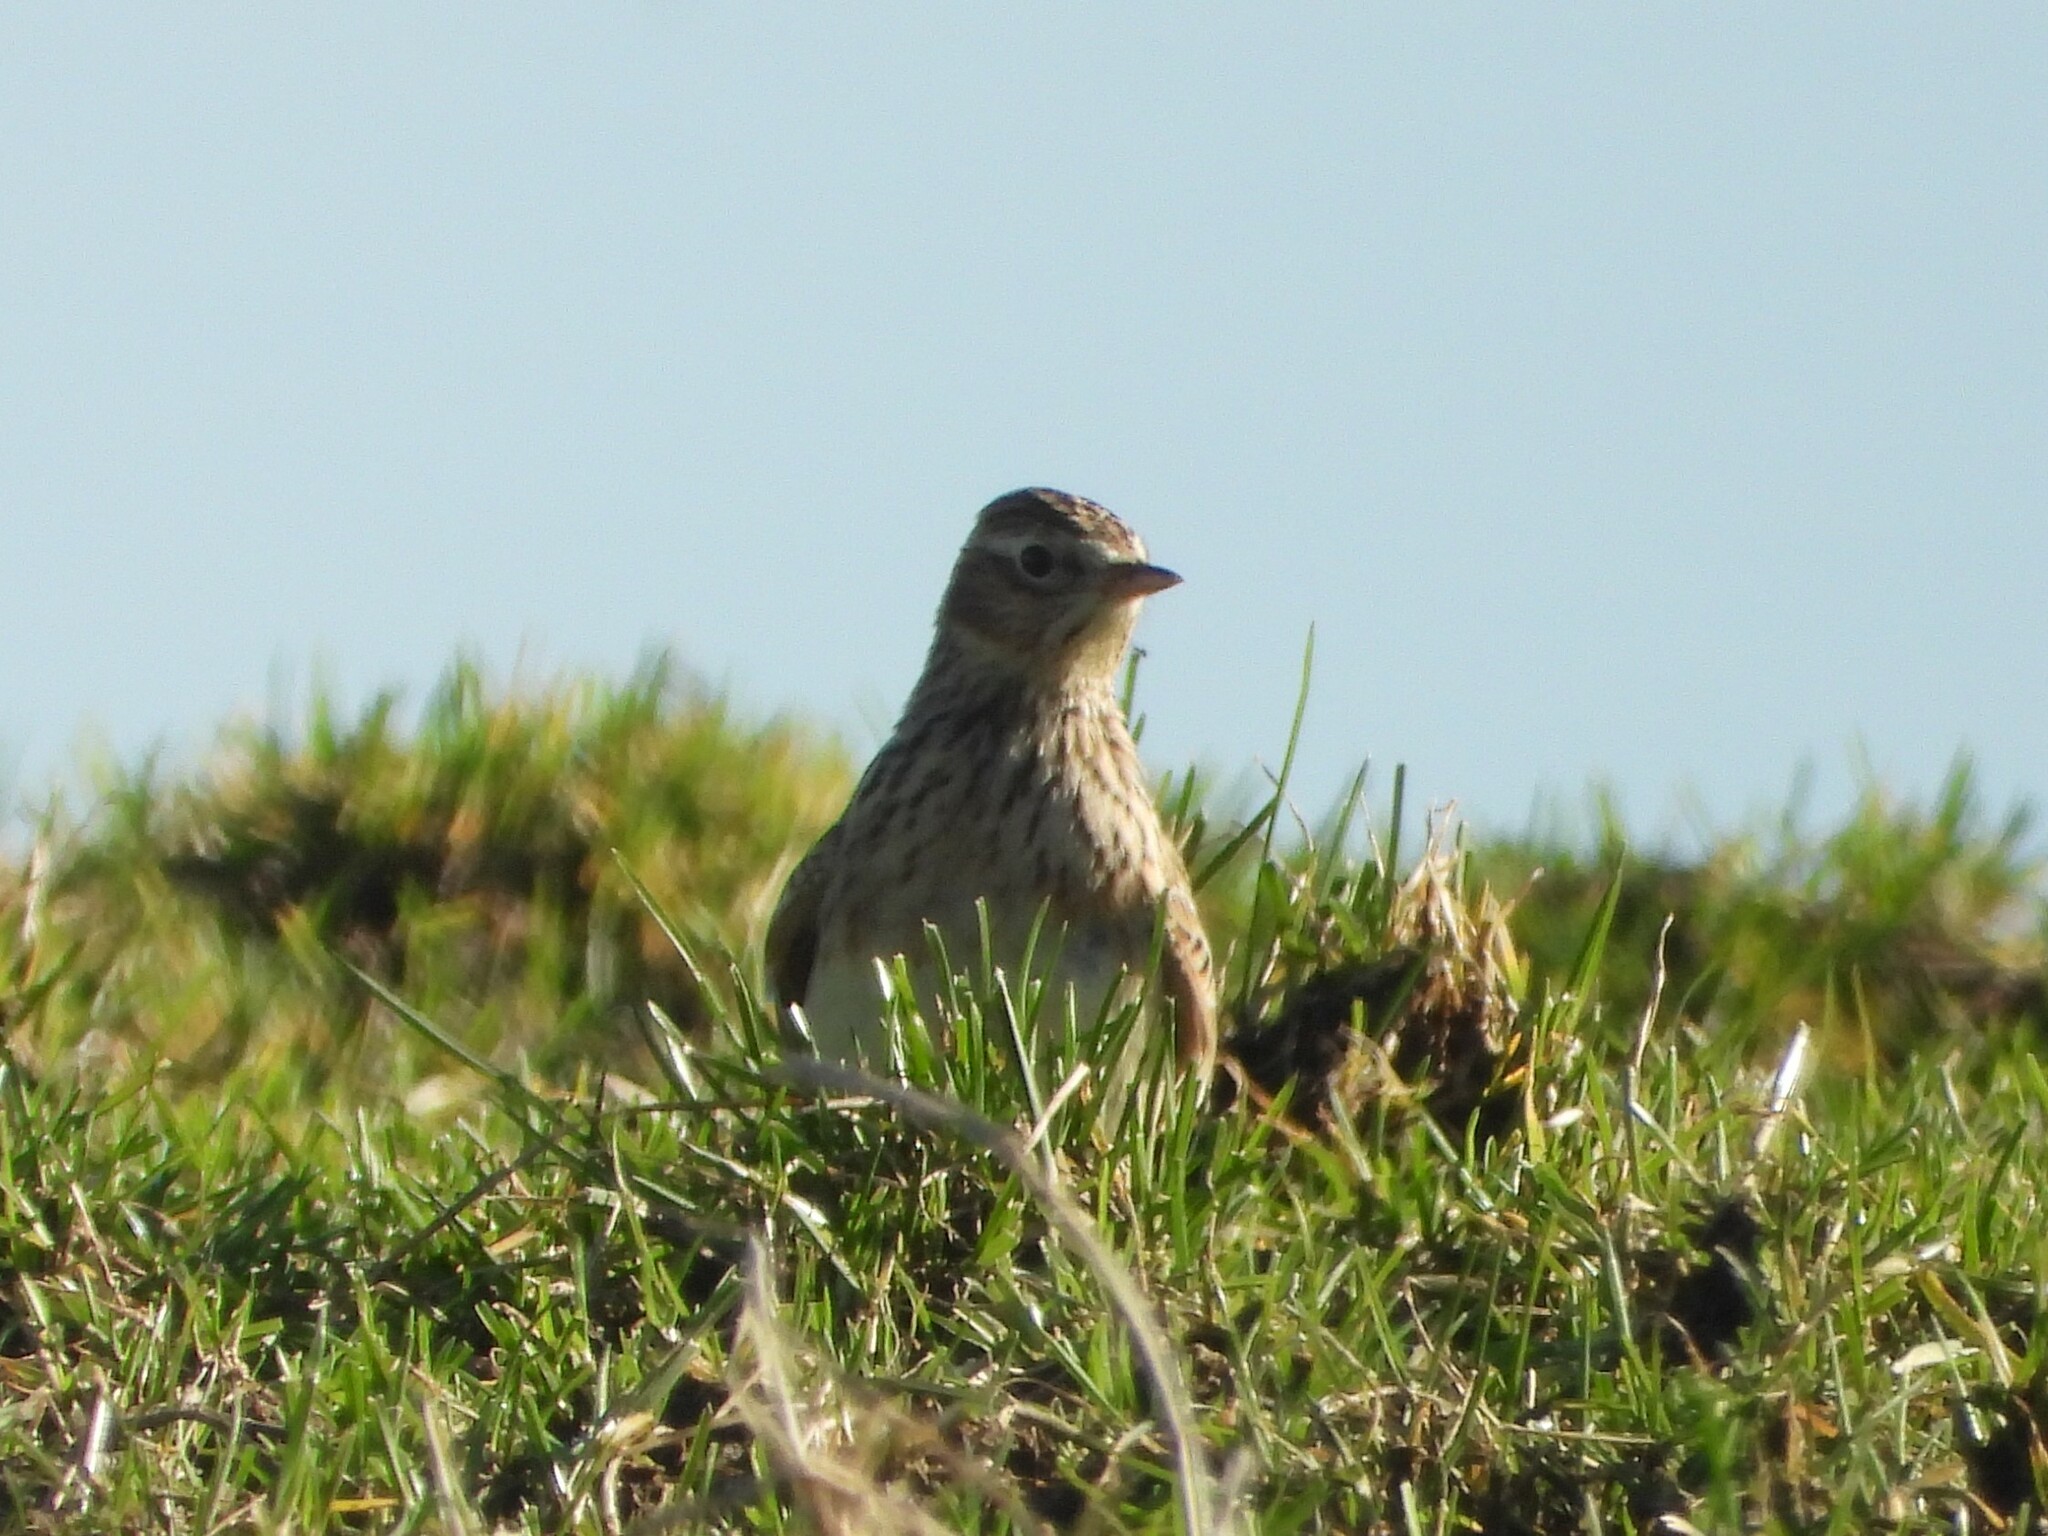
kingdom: Animalia
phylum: Chordata
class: Aves
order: Passeriformes
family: Alaudidae
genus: Alauda
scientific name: Alauda arvensis
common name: Eurasian skylark
